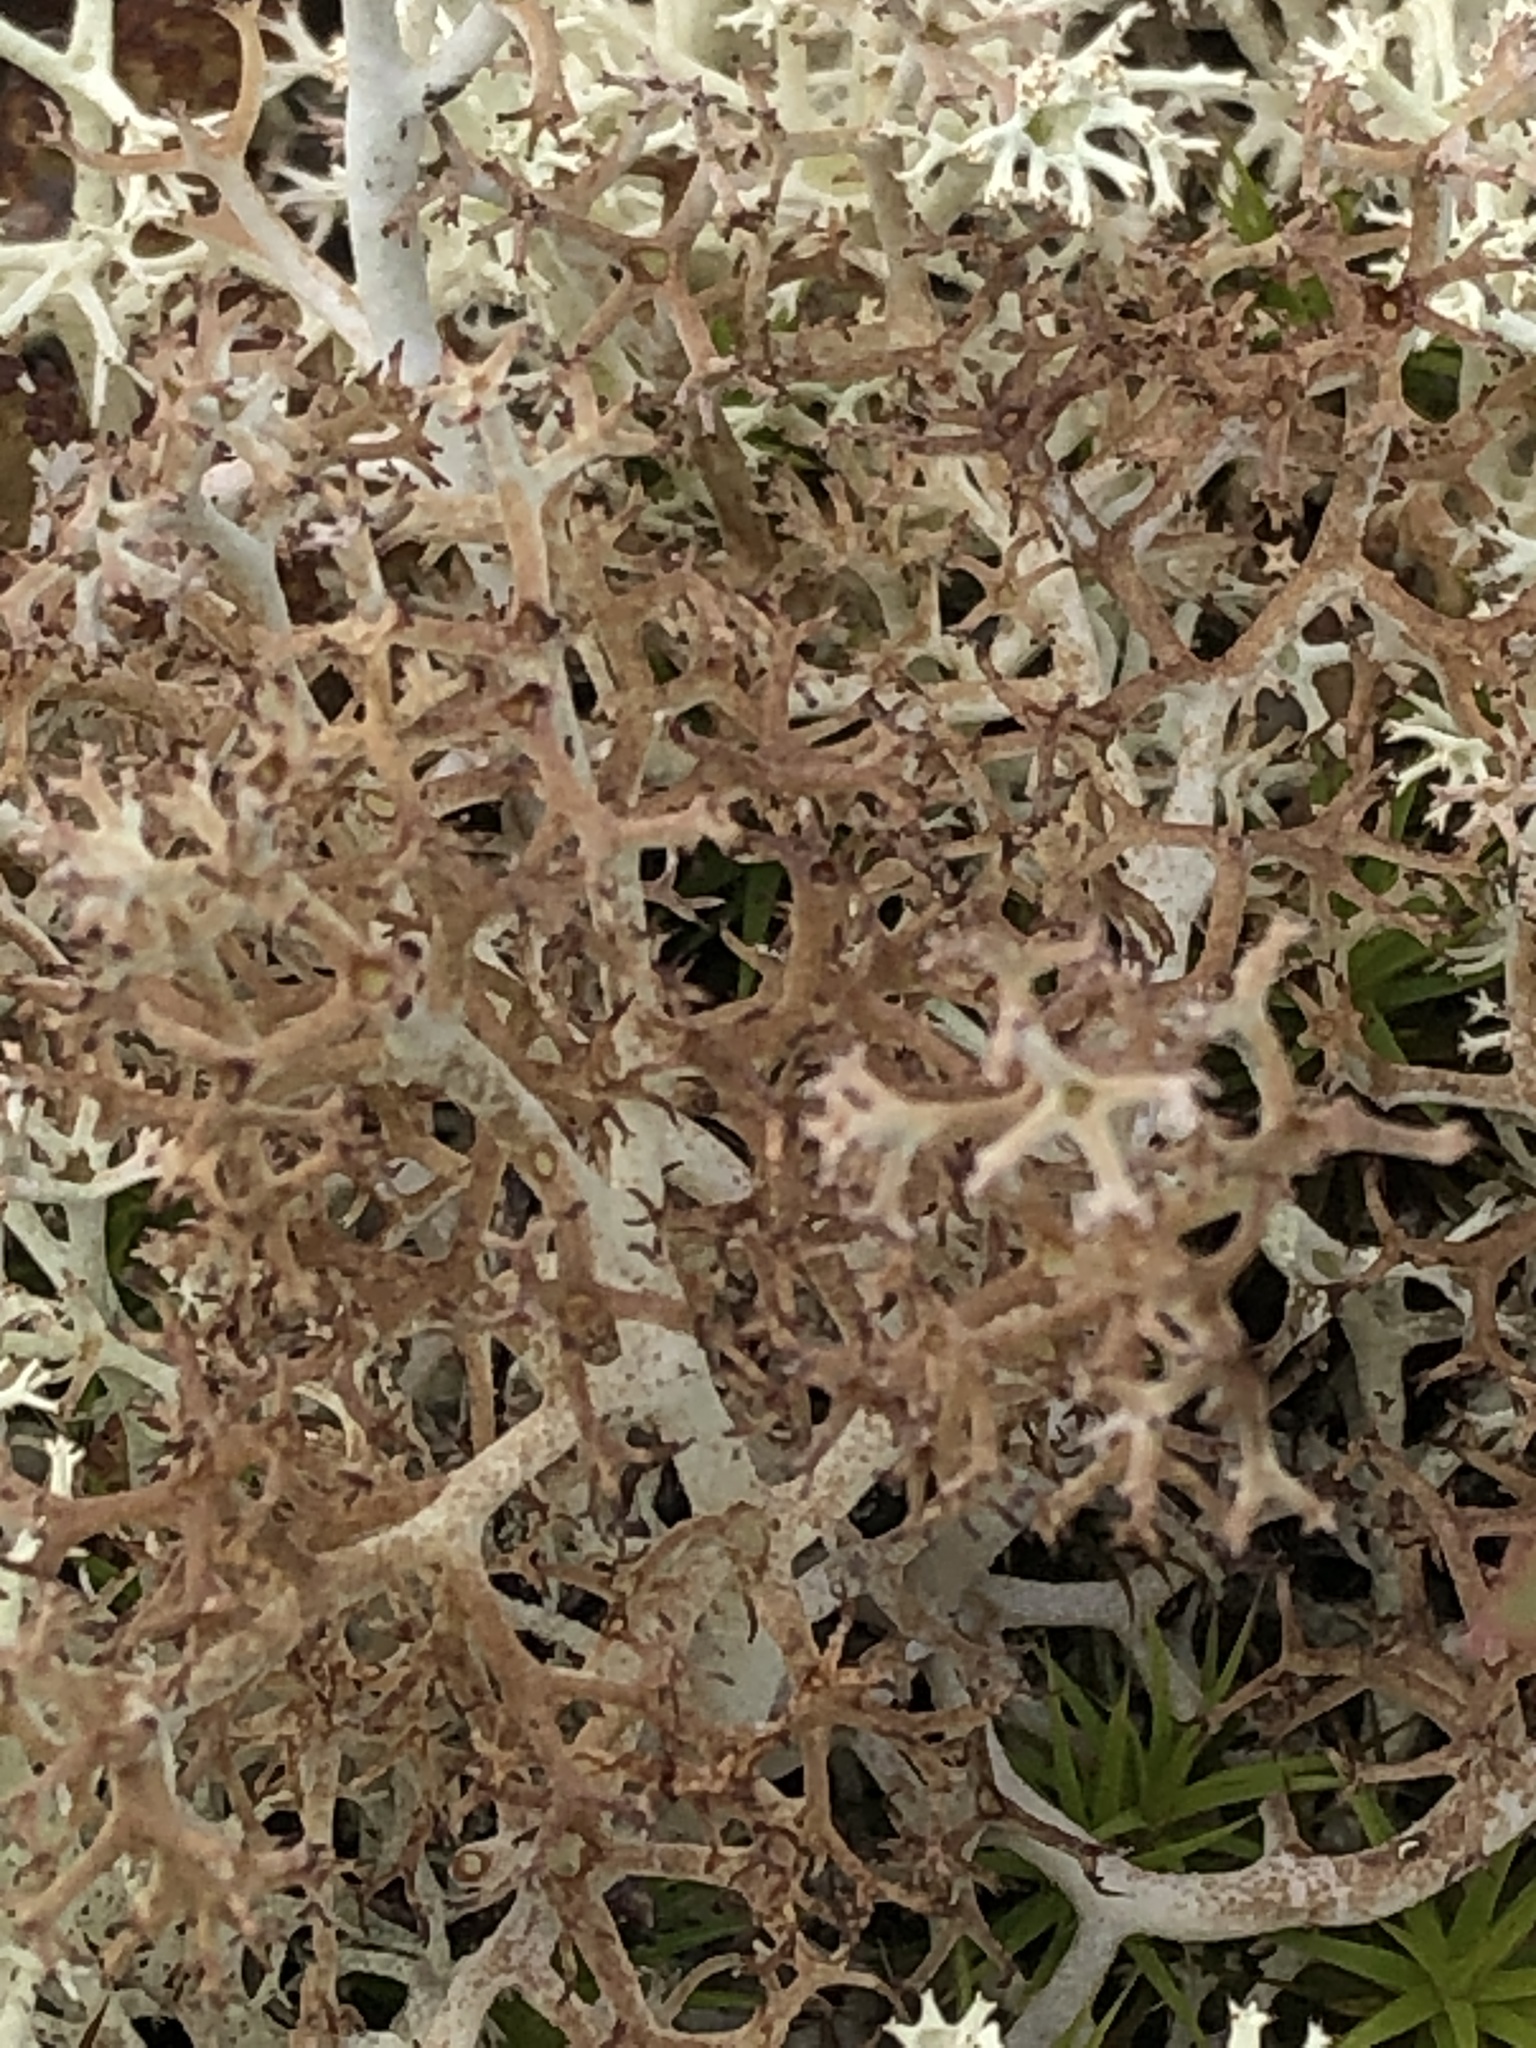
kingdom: Fungi
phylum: Ascomycota
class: Lecanoromycetes
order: Lecanorales
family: Cladoniaceae
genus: Cladonia
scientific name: Cladonia uncialis
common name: Thorn lichen
